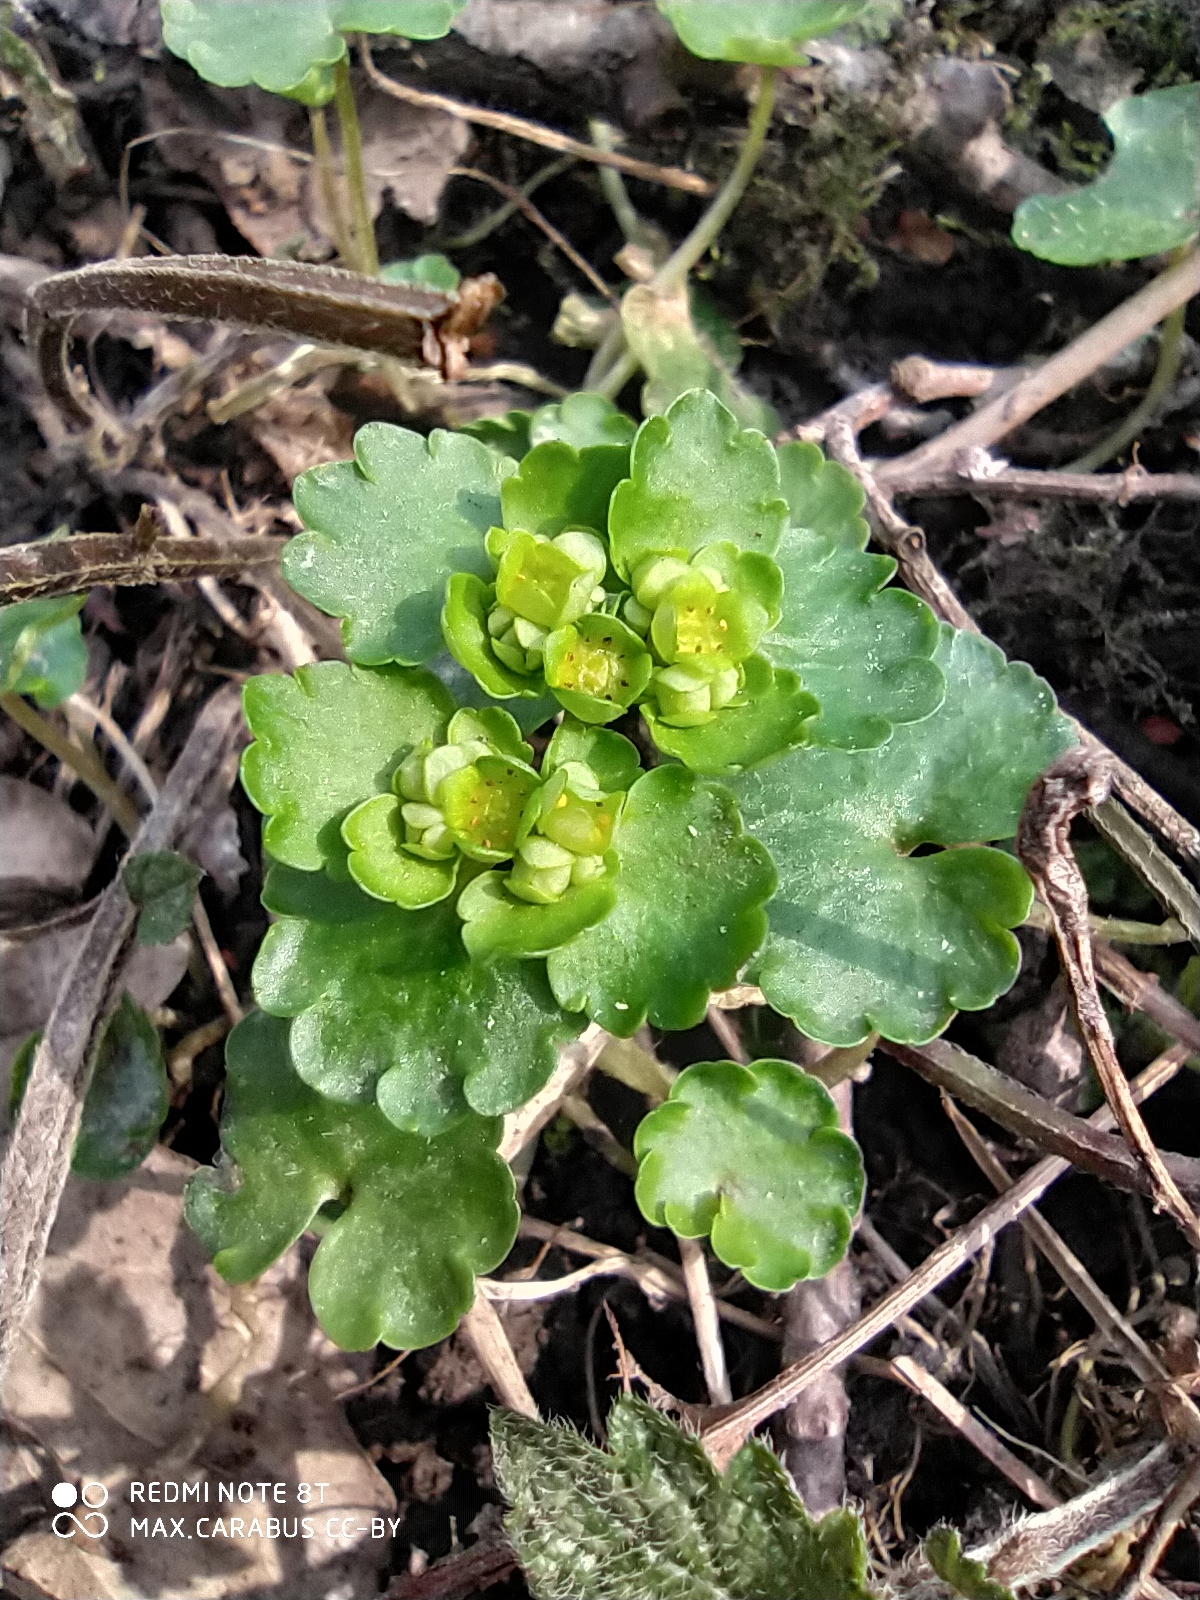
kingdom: Plantae
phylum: Tracheophyta
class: Magnoliopsida
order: Saxifragales
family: Saxifragaceae
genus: Chrysosplenium
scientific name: Chrysosplenium alternifolium
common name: Alternate-leaved golden-saxifrage
